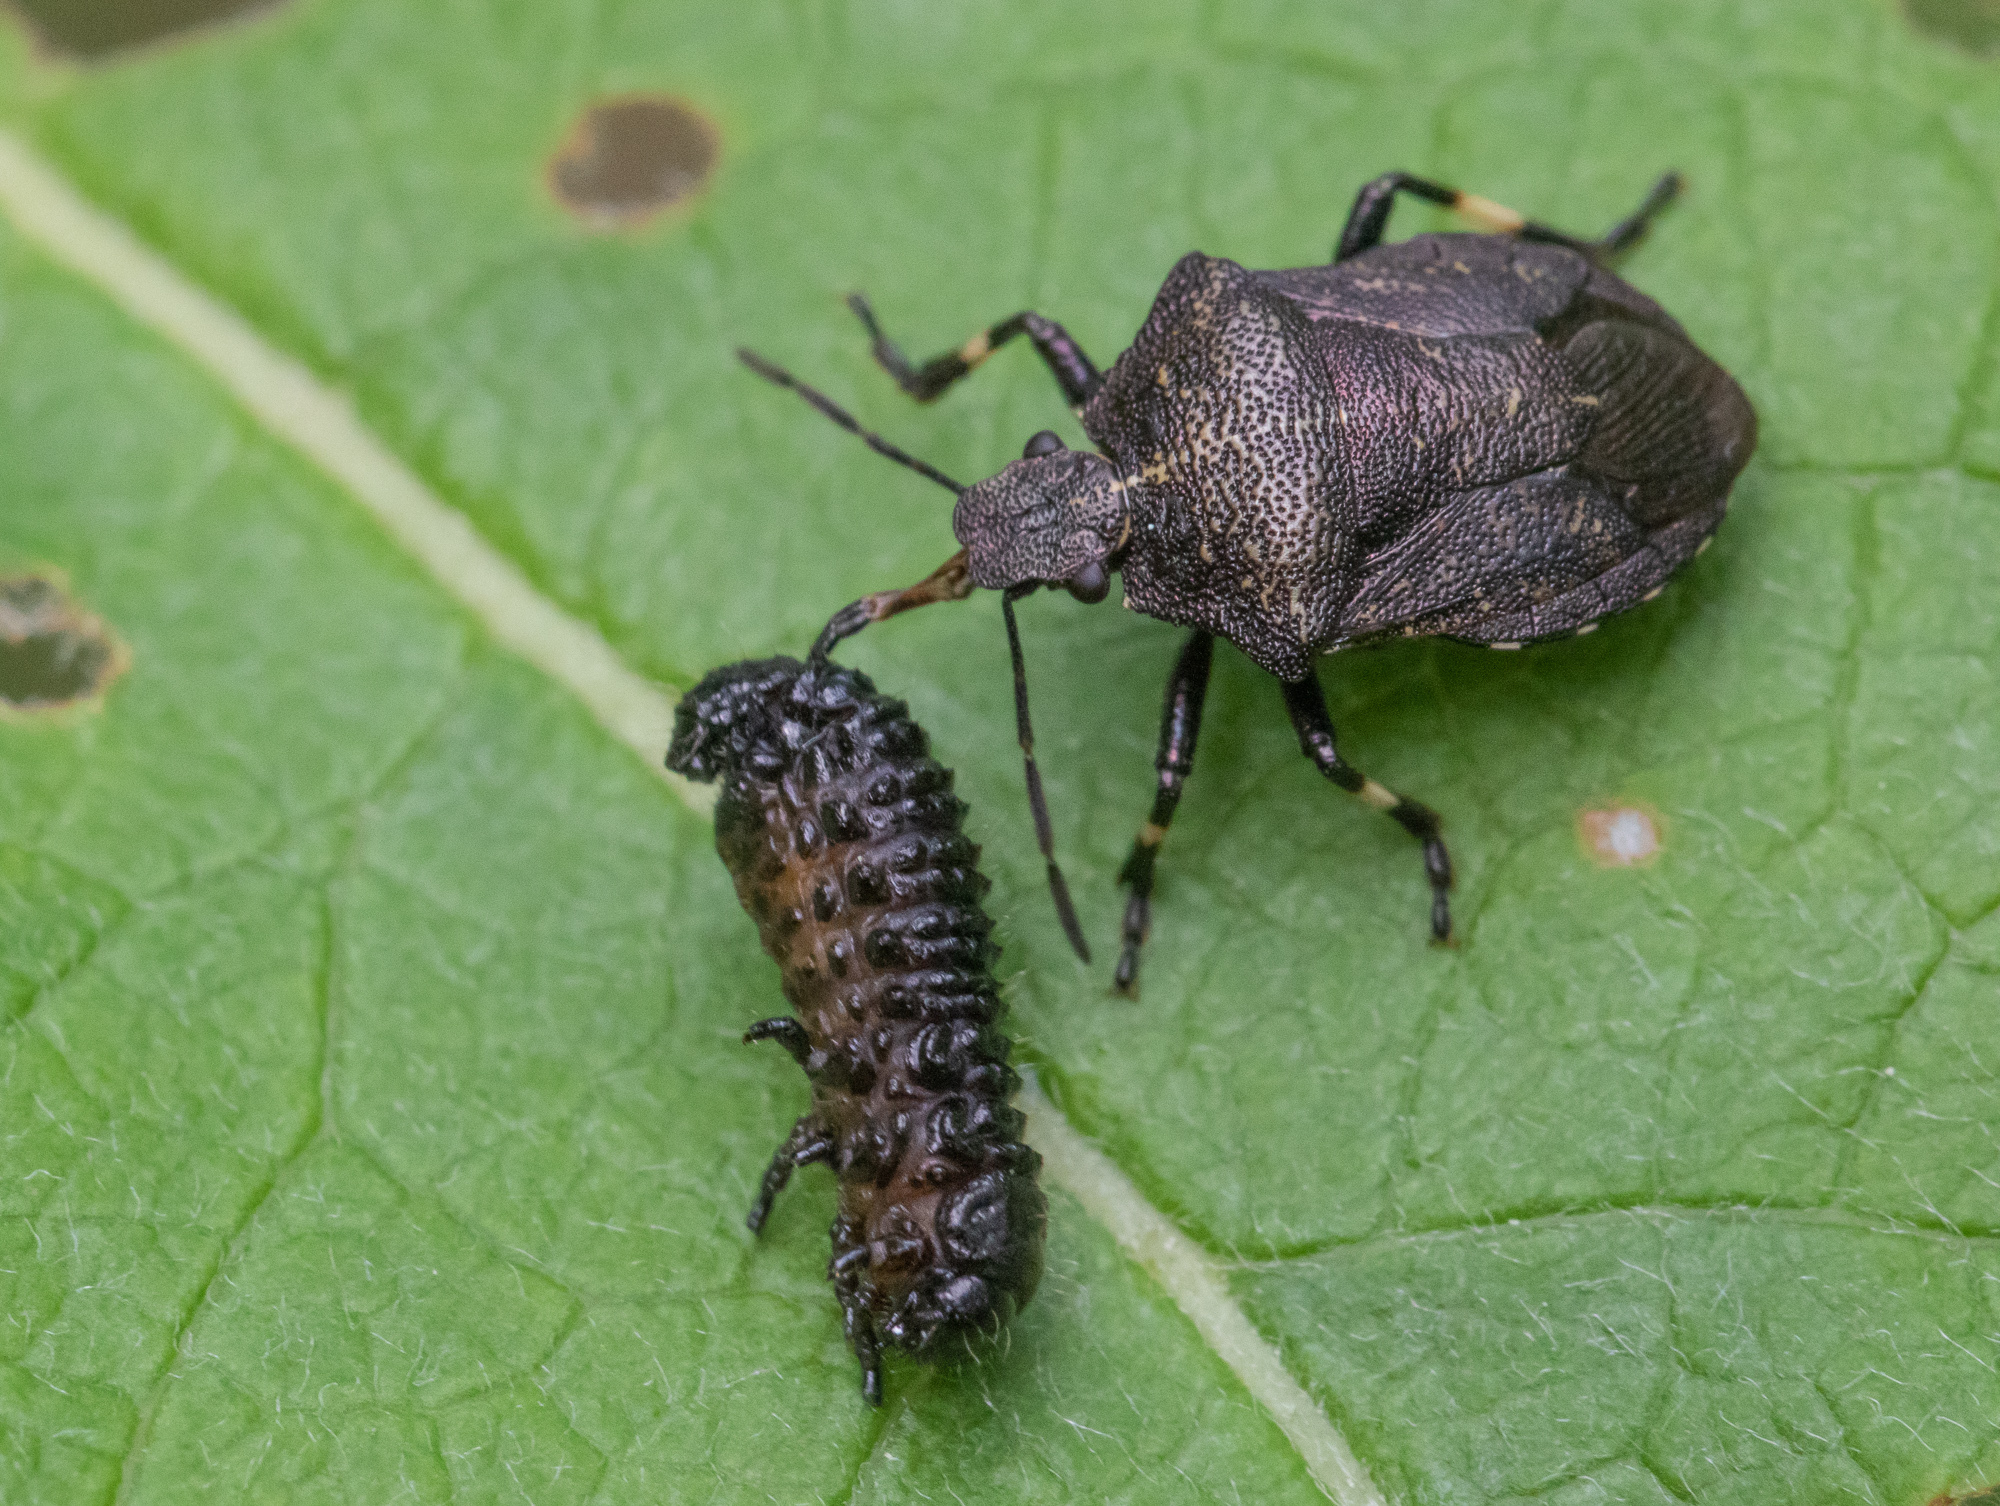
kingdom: Animalia
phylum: Arthropoda
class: Insecta
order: Hemiptera
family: Pentatomidae
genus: Rhacognathus
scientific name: Rhacognathus punctatus
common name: Heather bug
